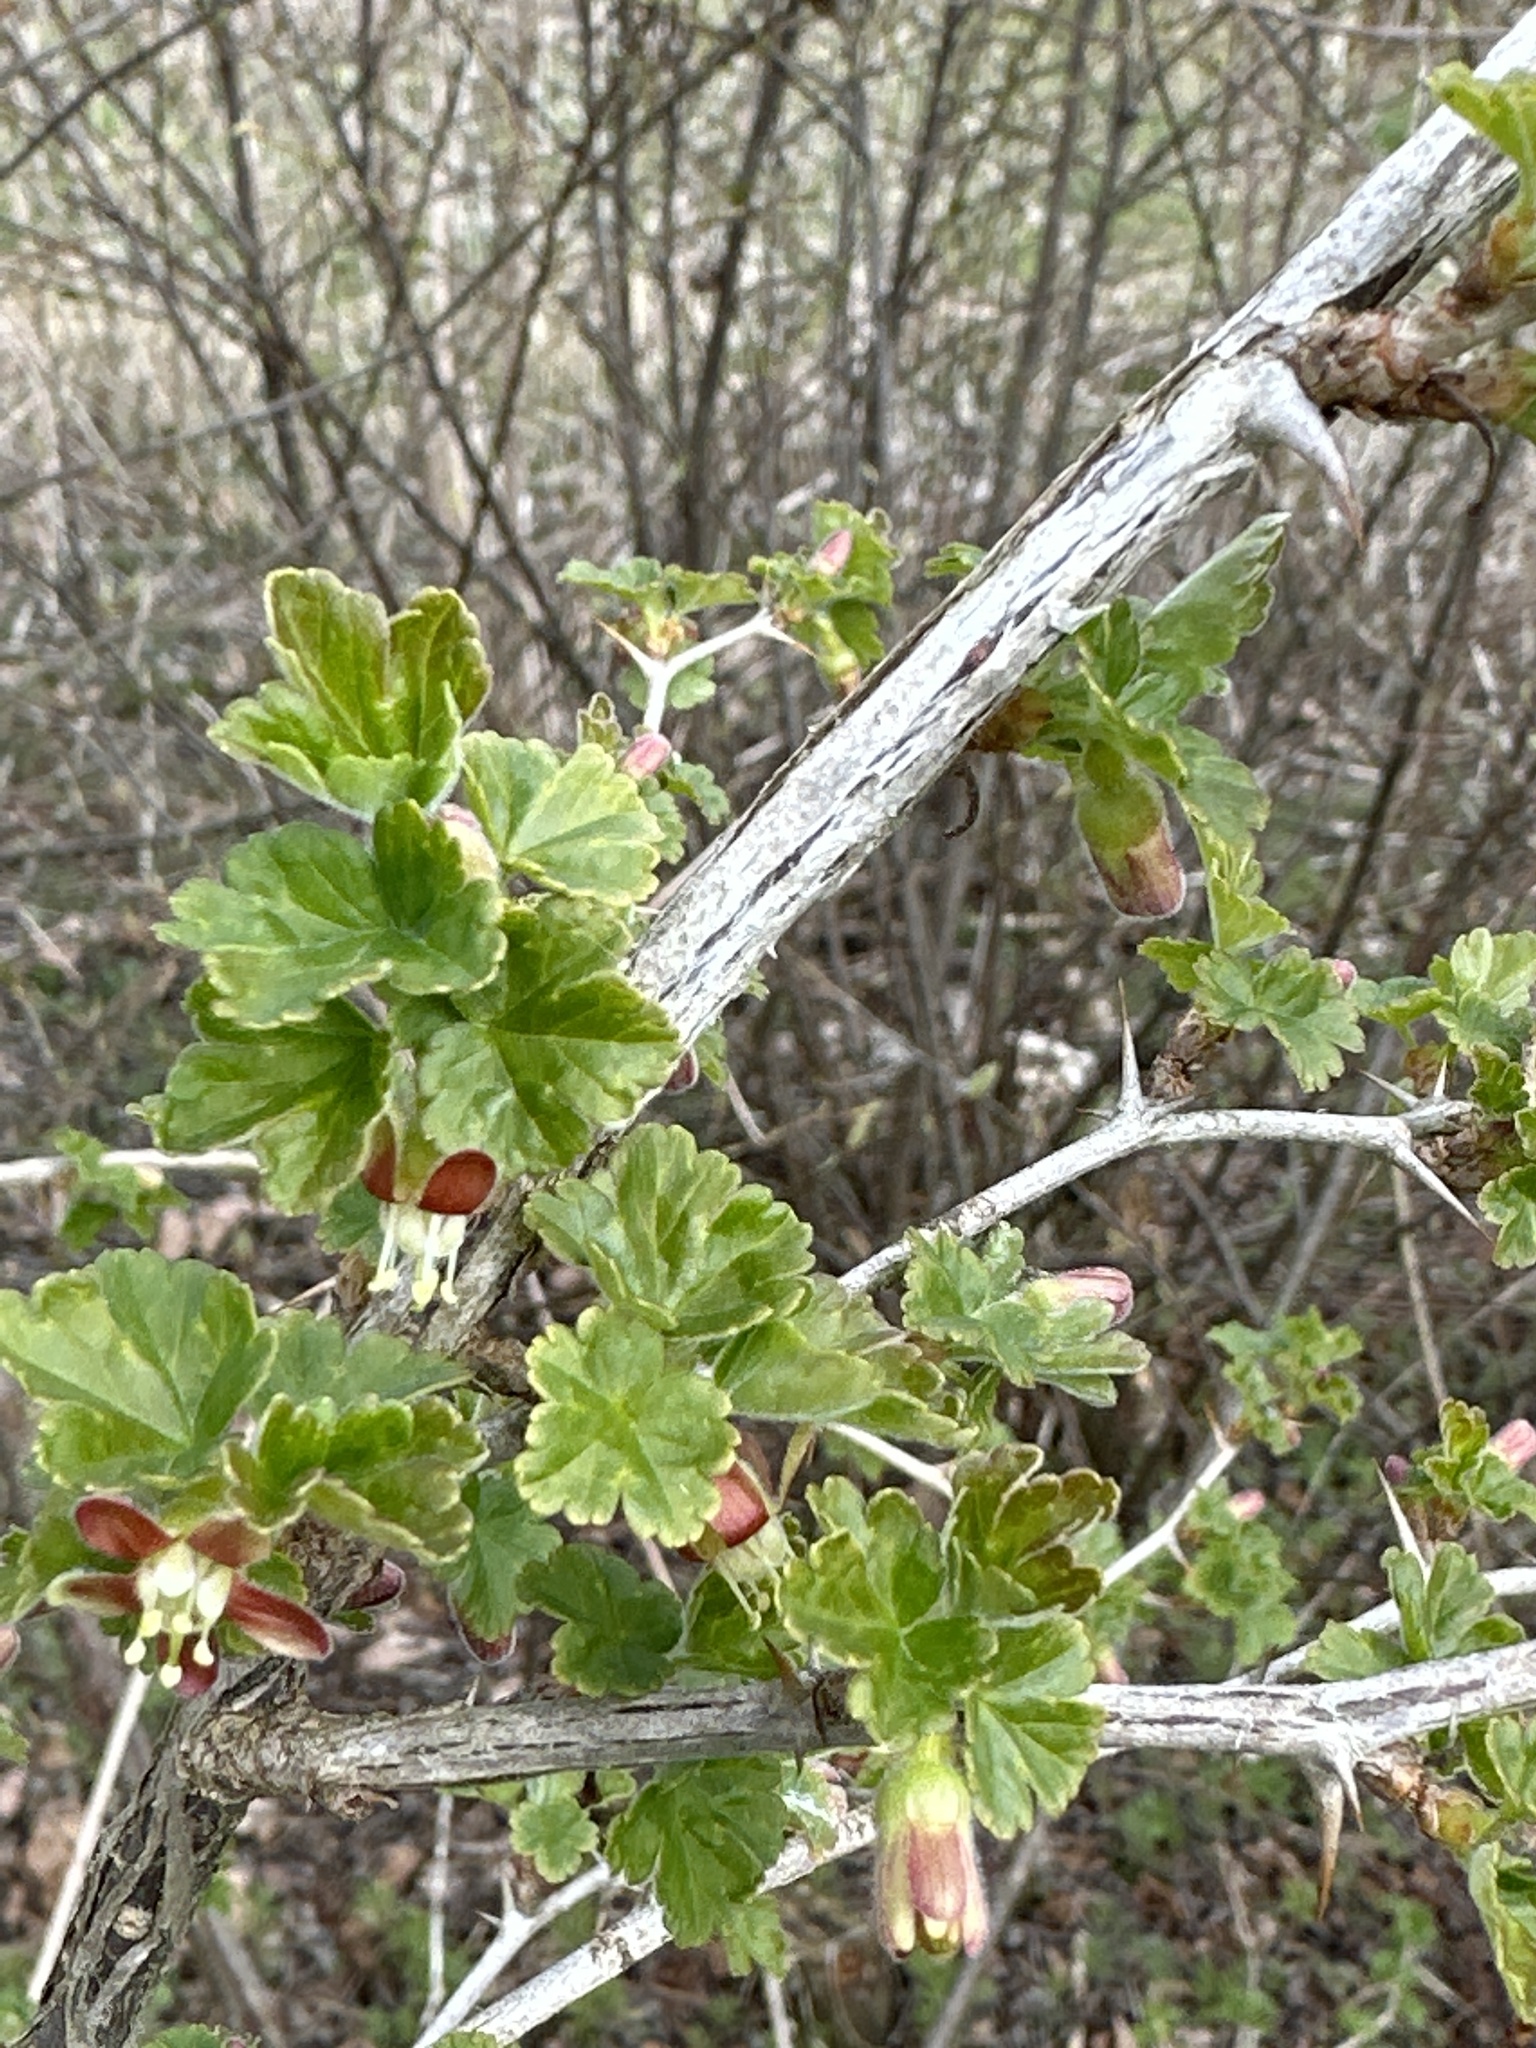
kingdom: Plantae
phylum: Tracheophyta
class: Magnoliopsida
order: Saxifragales
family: Grossulariaceae
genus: Ribes
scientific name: Ribes uva-crispa
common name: Gooseberry
